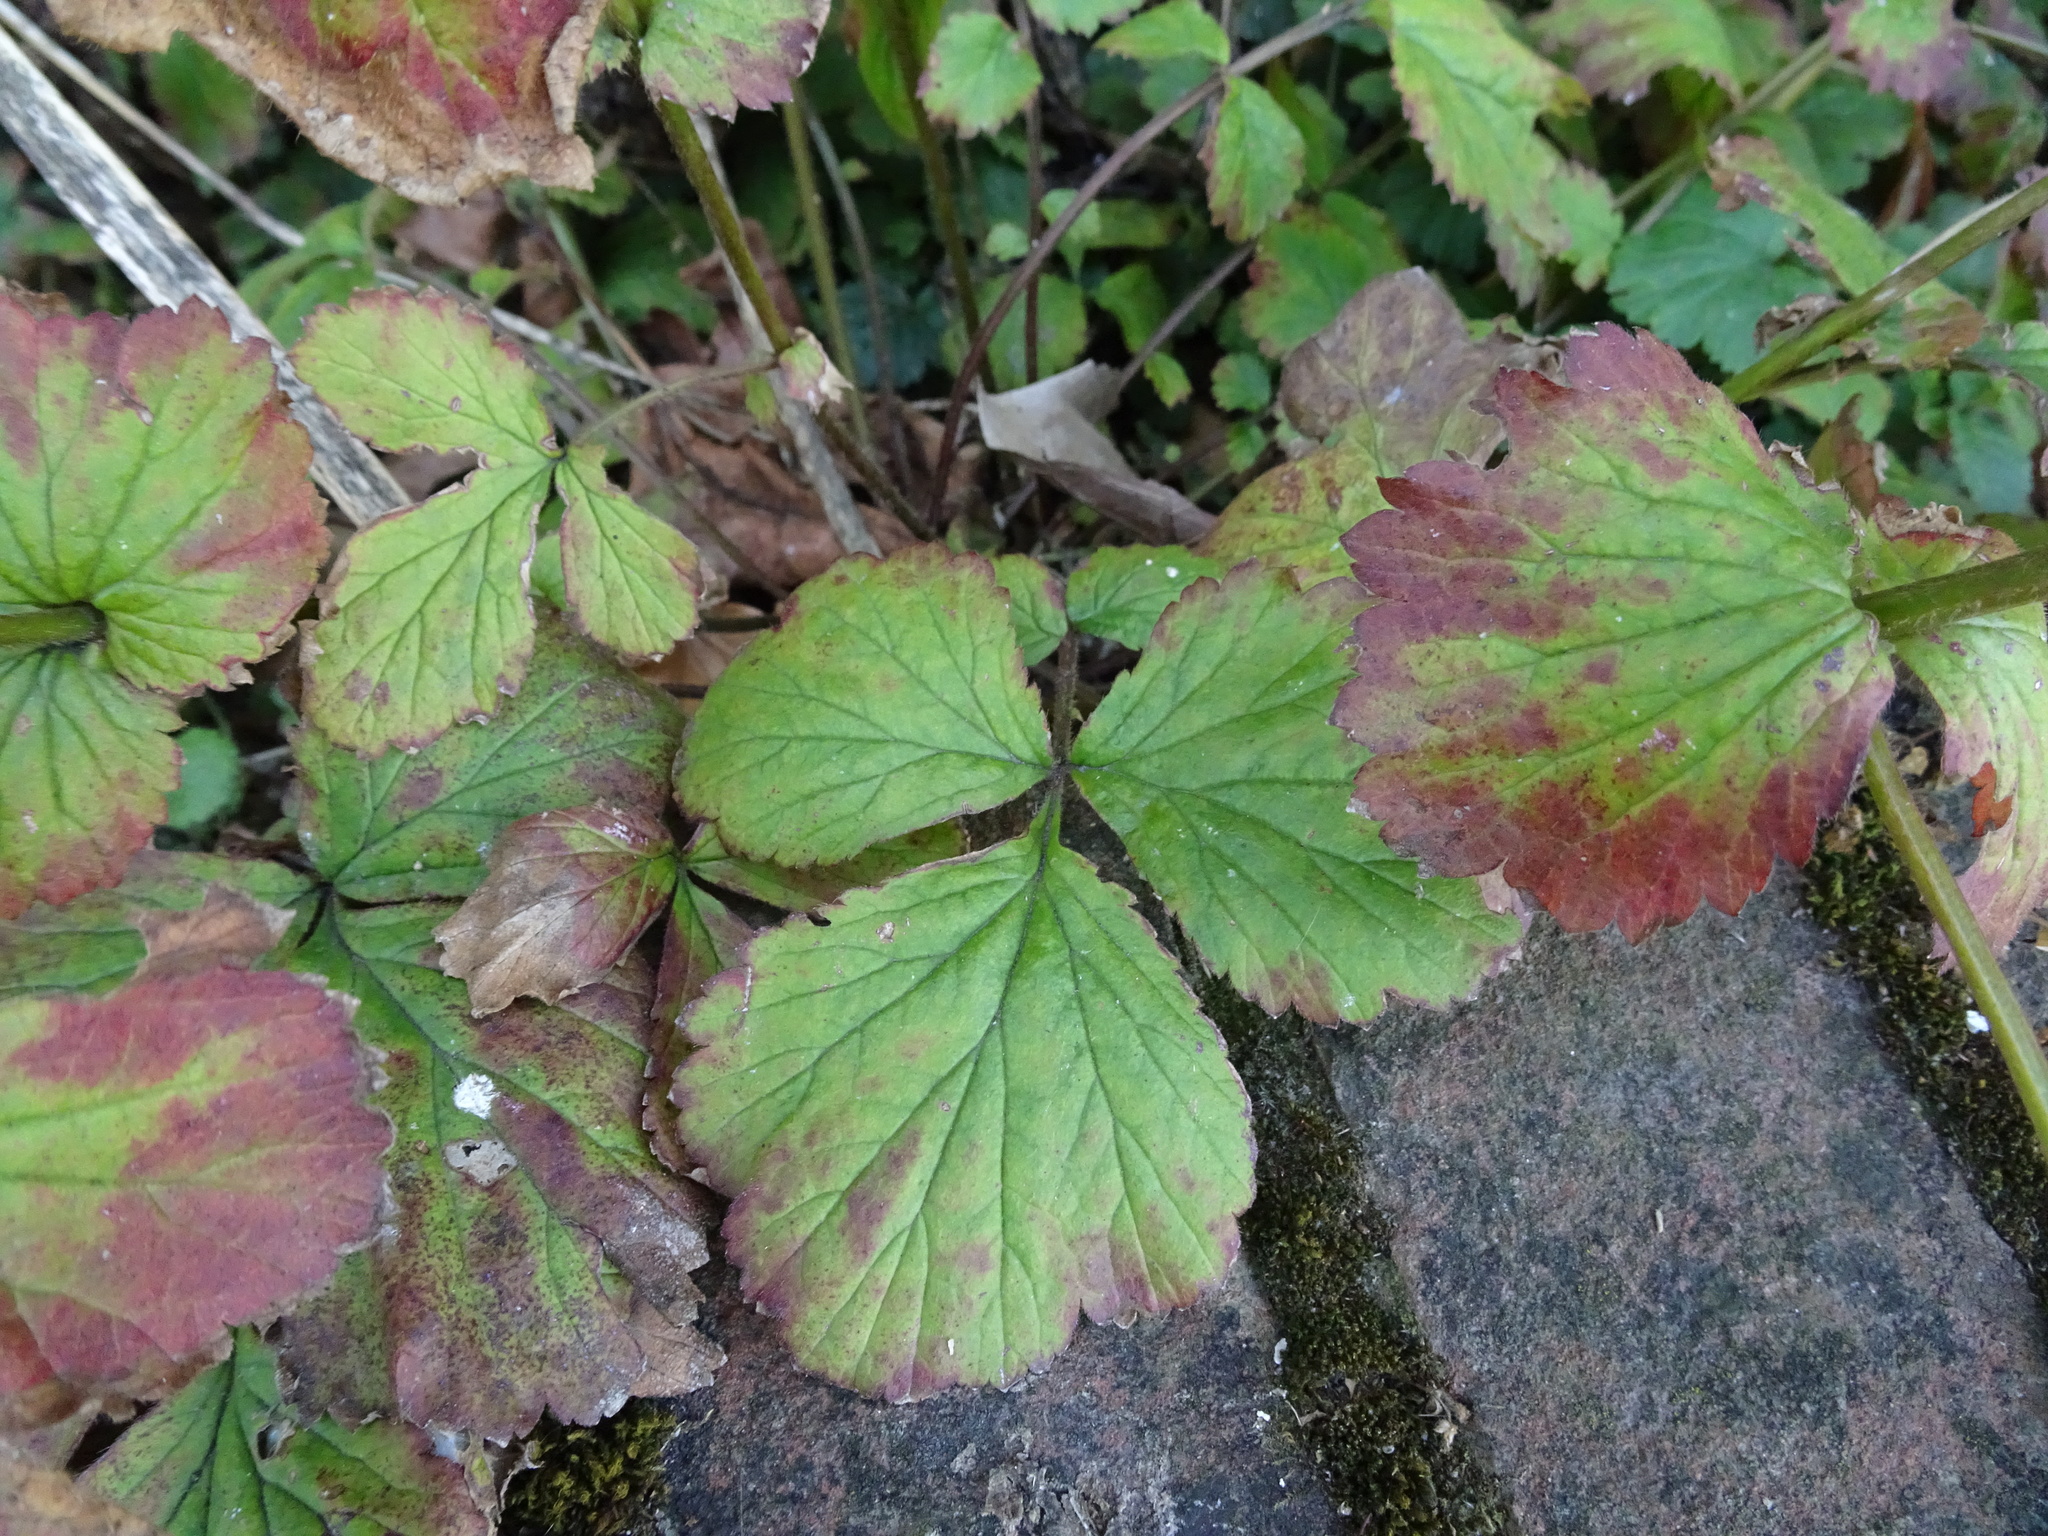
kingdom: Plantae
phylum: Tracheophyta
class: Magnoliopsida
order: Rosales
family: Rosaceae
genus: Geum
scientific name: Geum urbanum
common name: Wood avens
